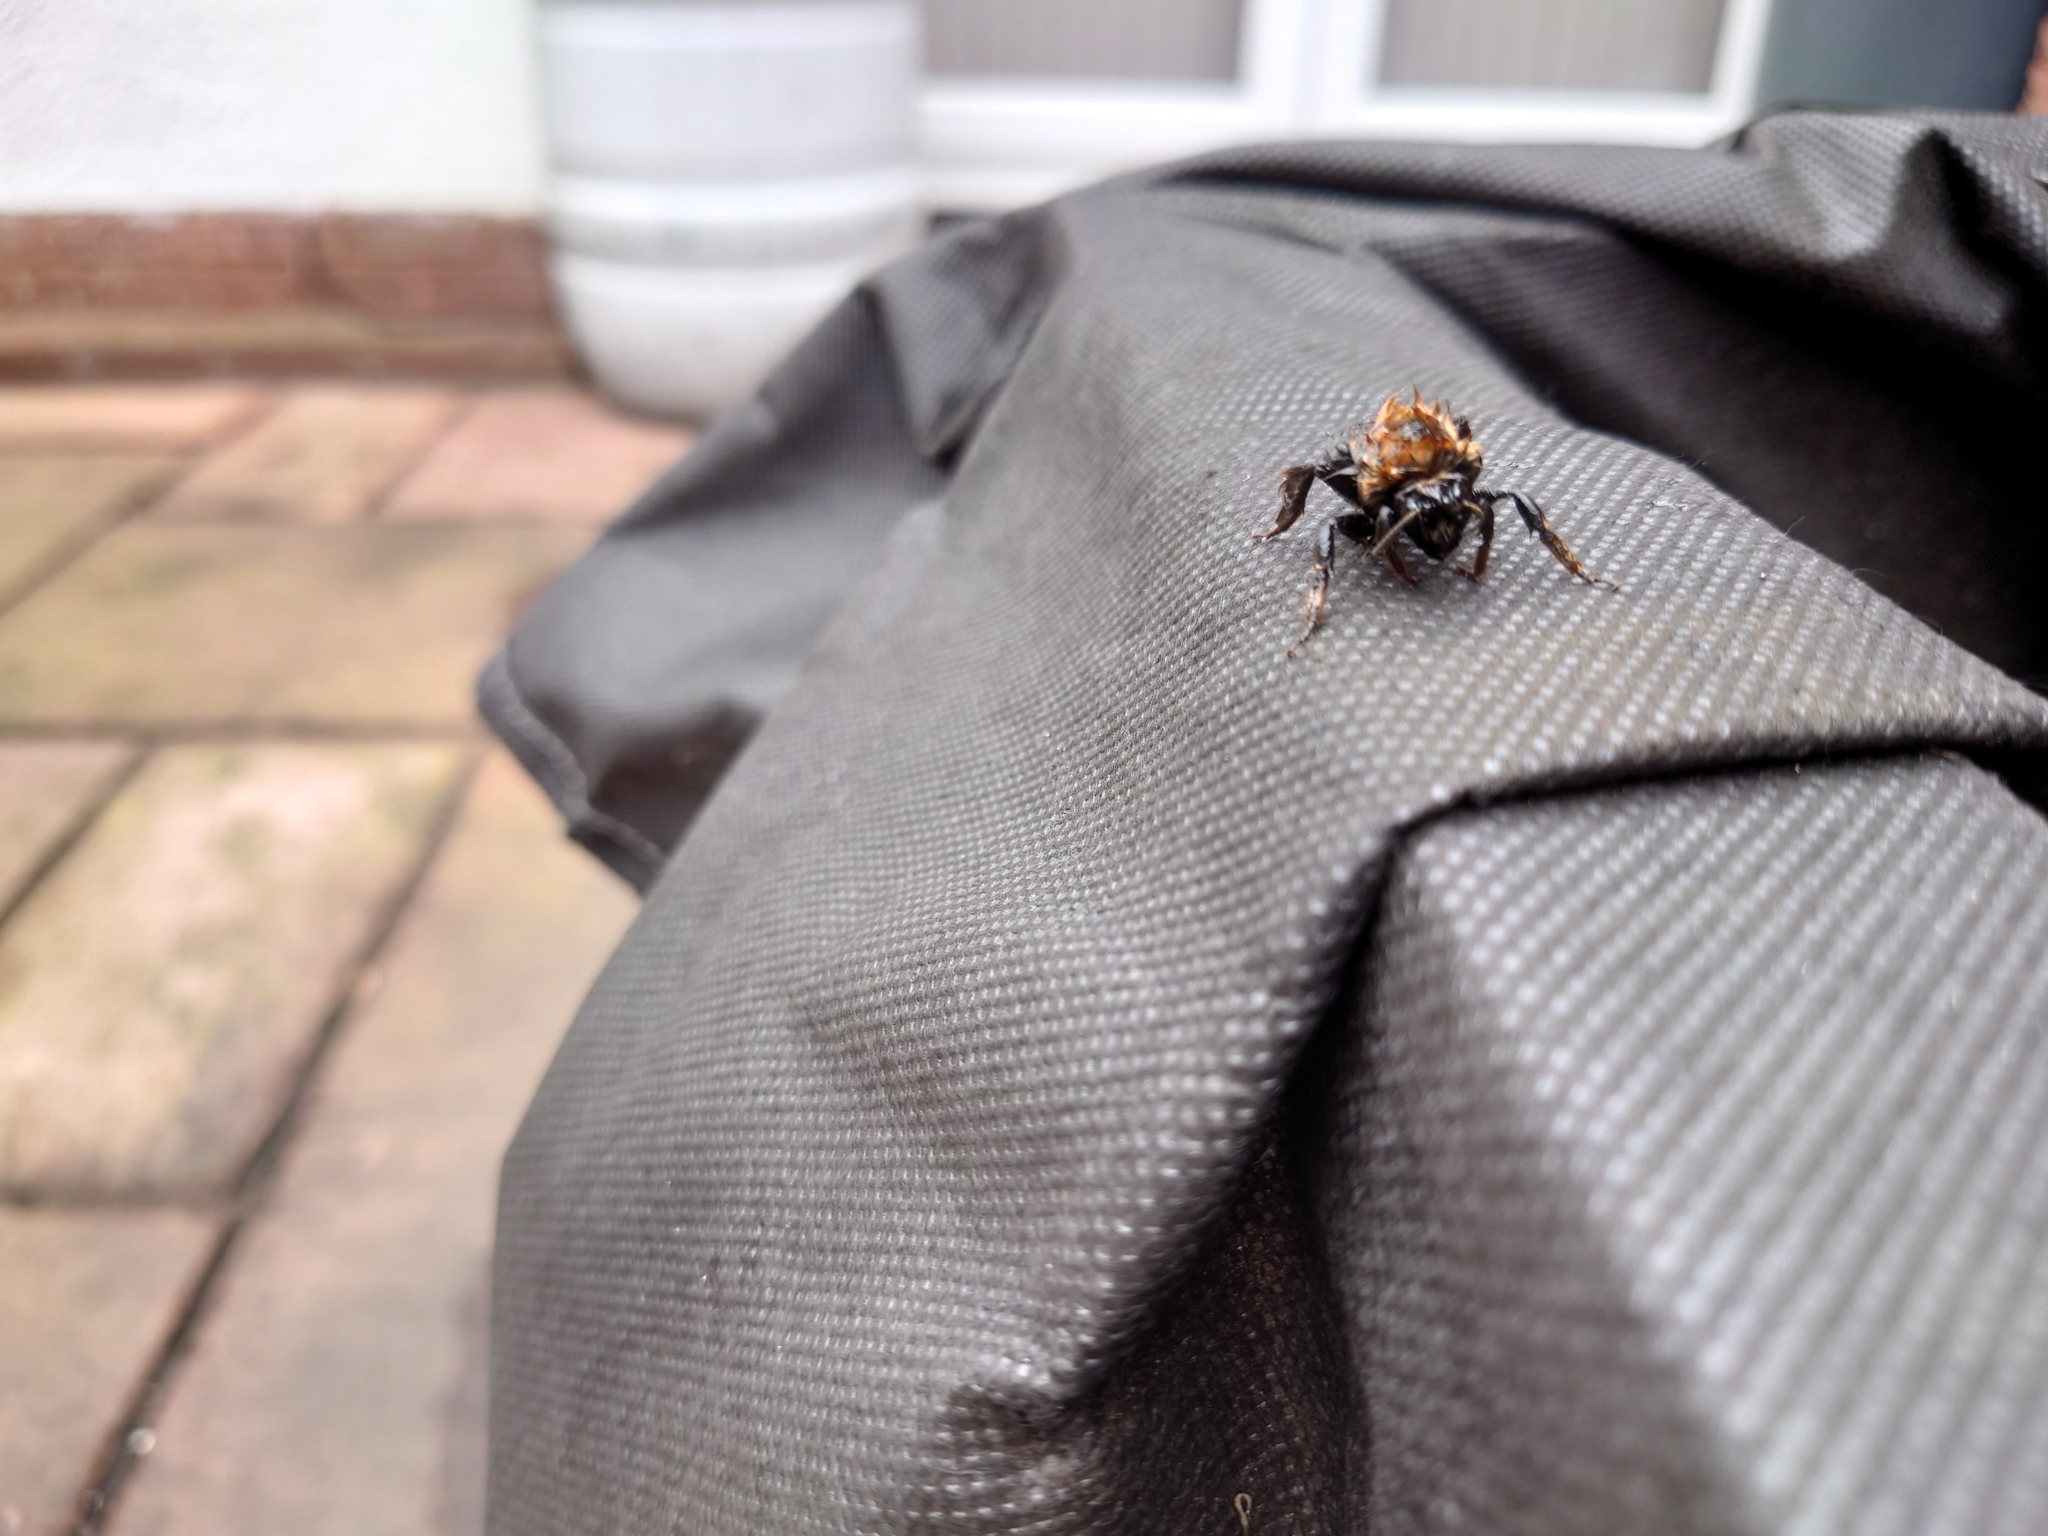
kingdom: Animalia
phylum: Arthropoda
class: Insecta
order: Hymenoptera
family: Apidae
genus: Bombus
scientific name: Bombus hypnorum
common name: New garden bumblebee
